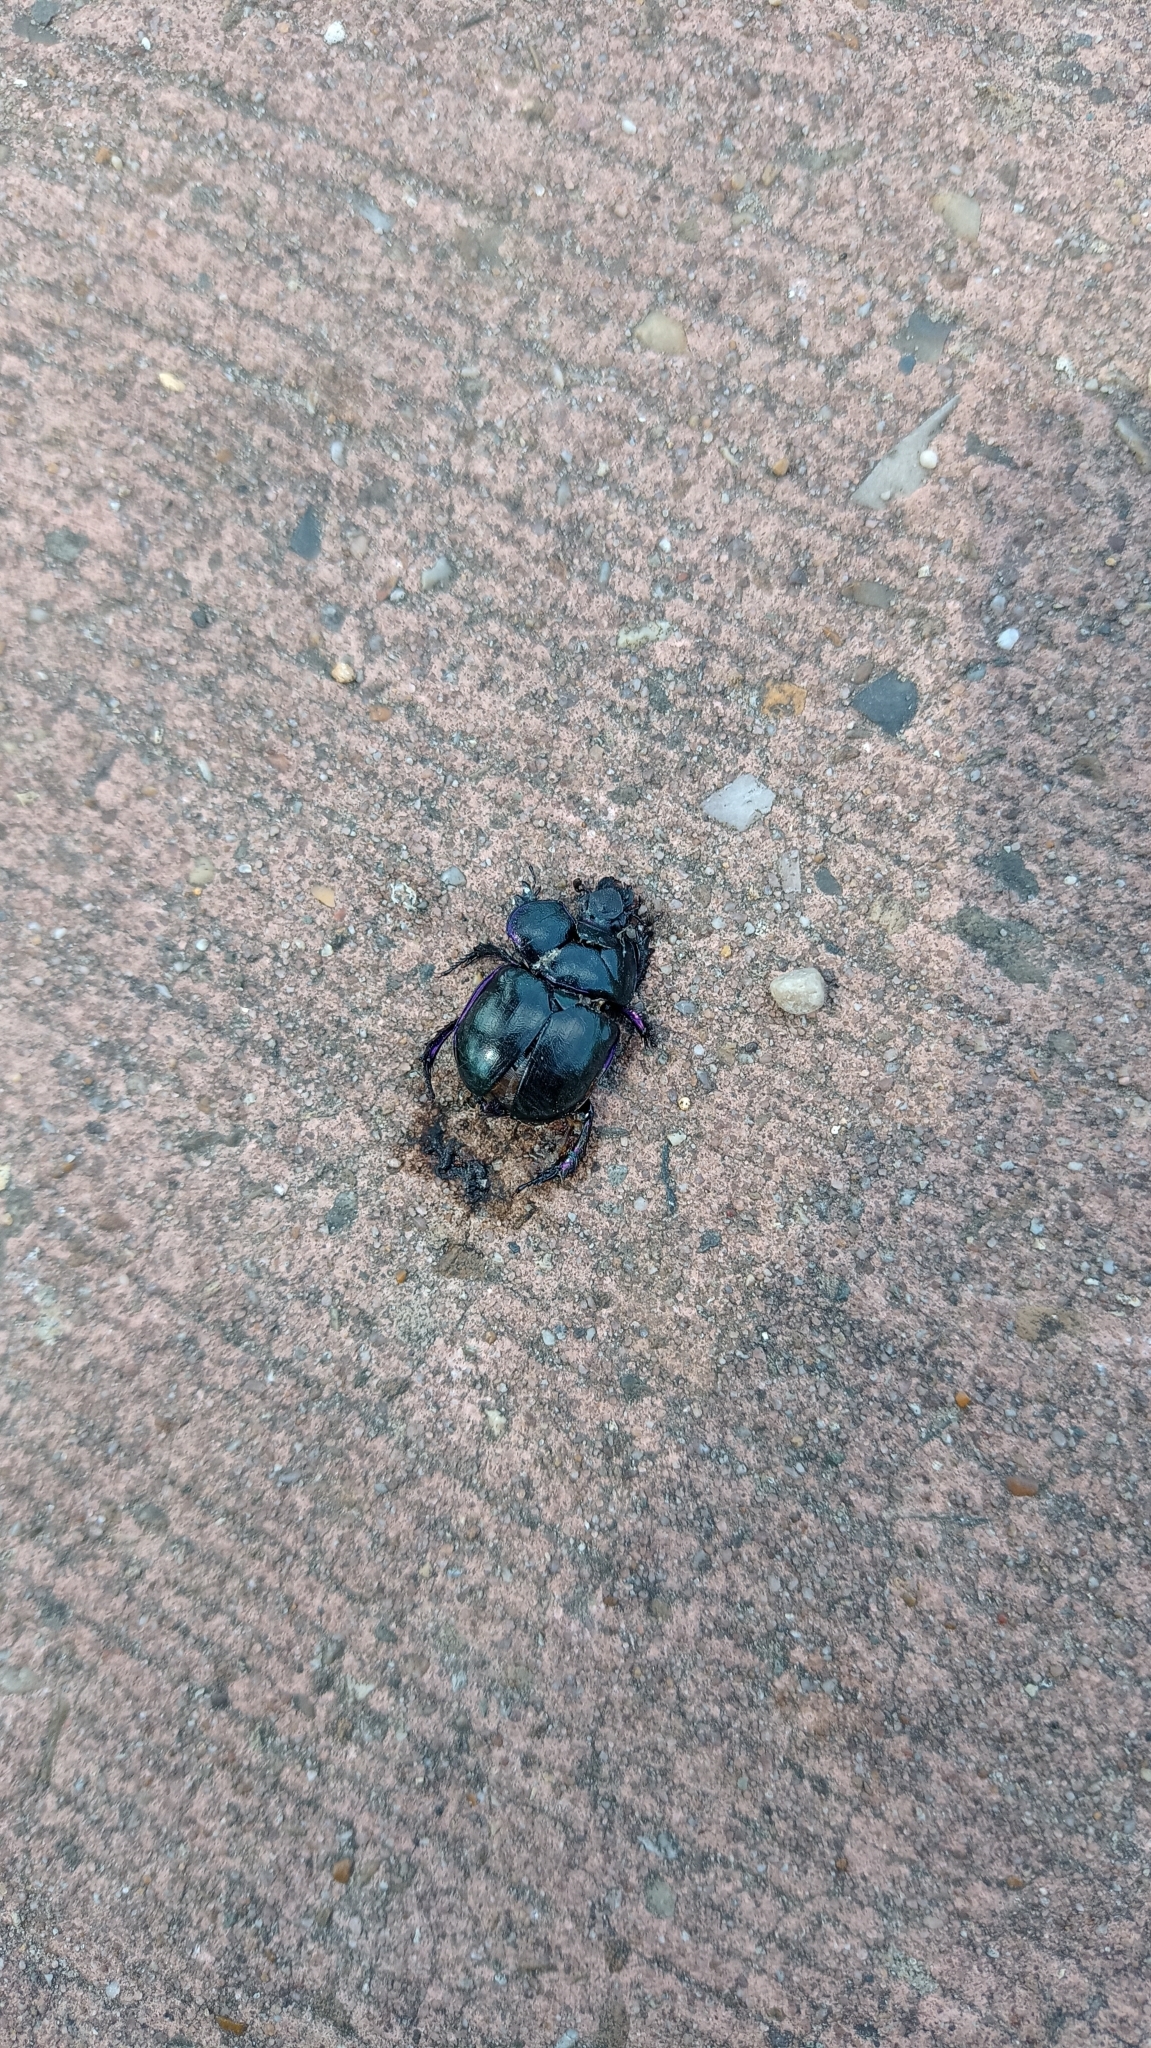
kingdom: Animalia
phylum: Arthropoda
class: Insecta
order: Coleoptera
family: Geotrupidae
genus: Trypocopris
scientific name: Trypocopris vernalis
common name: Spring dumbledor
